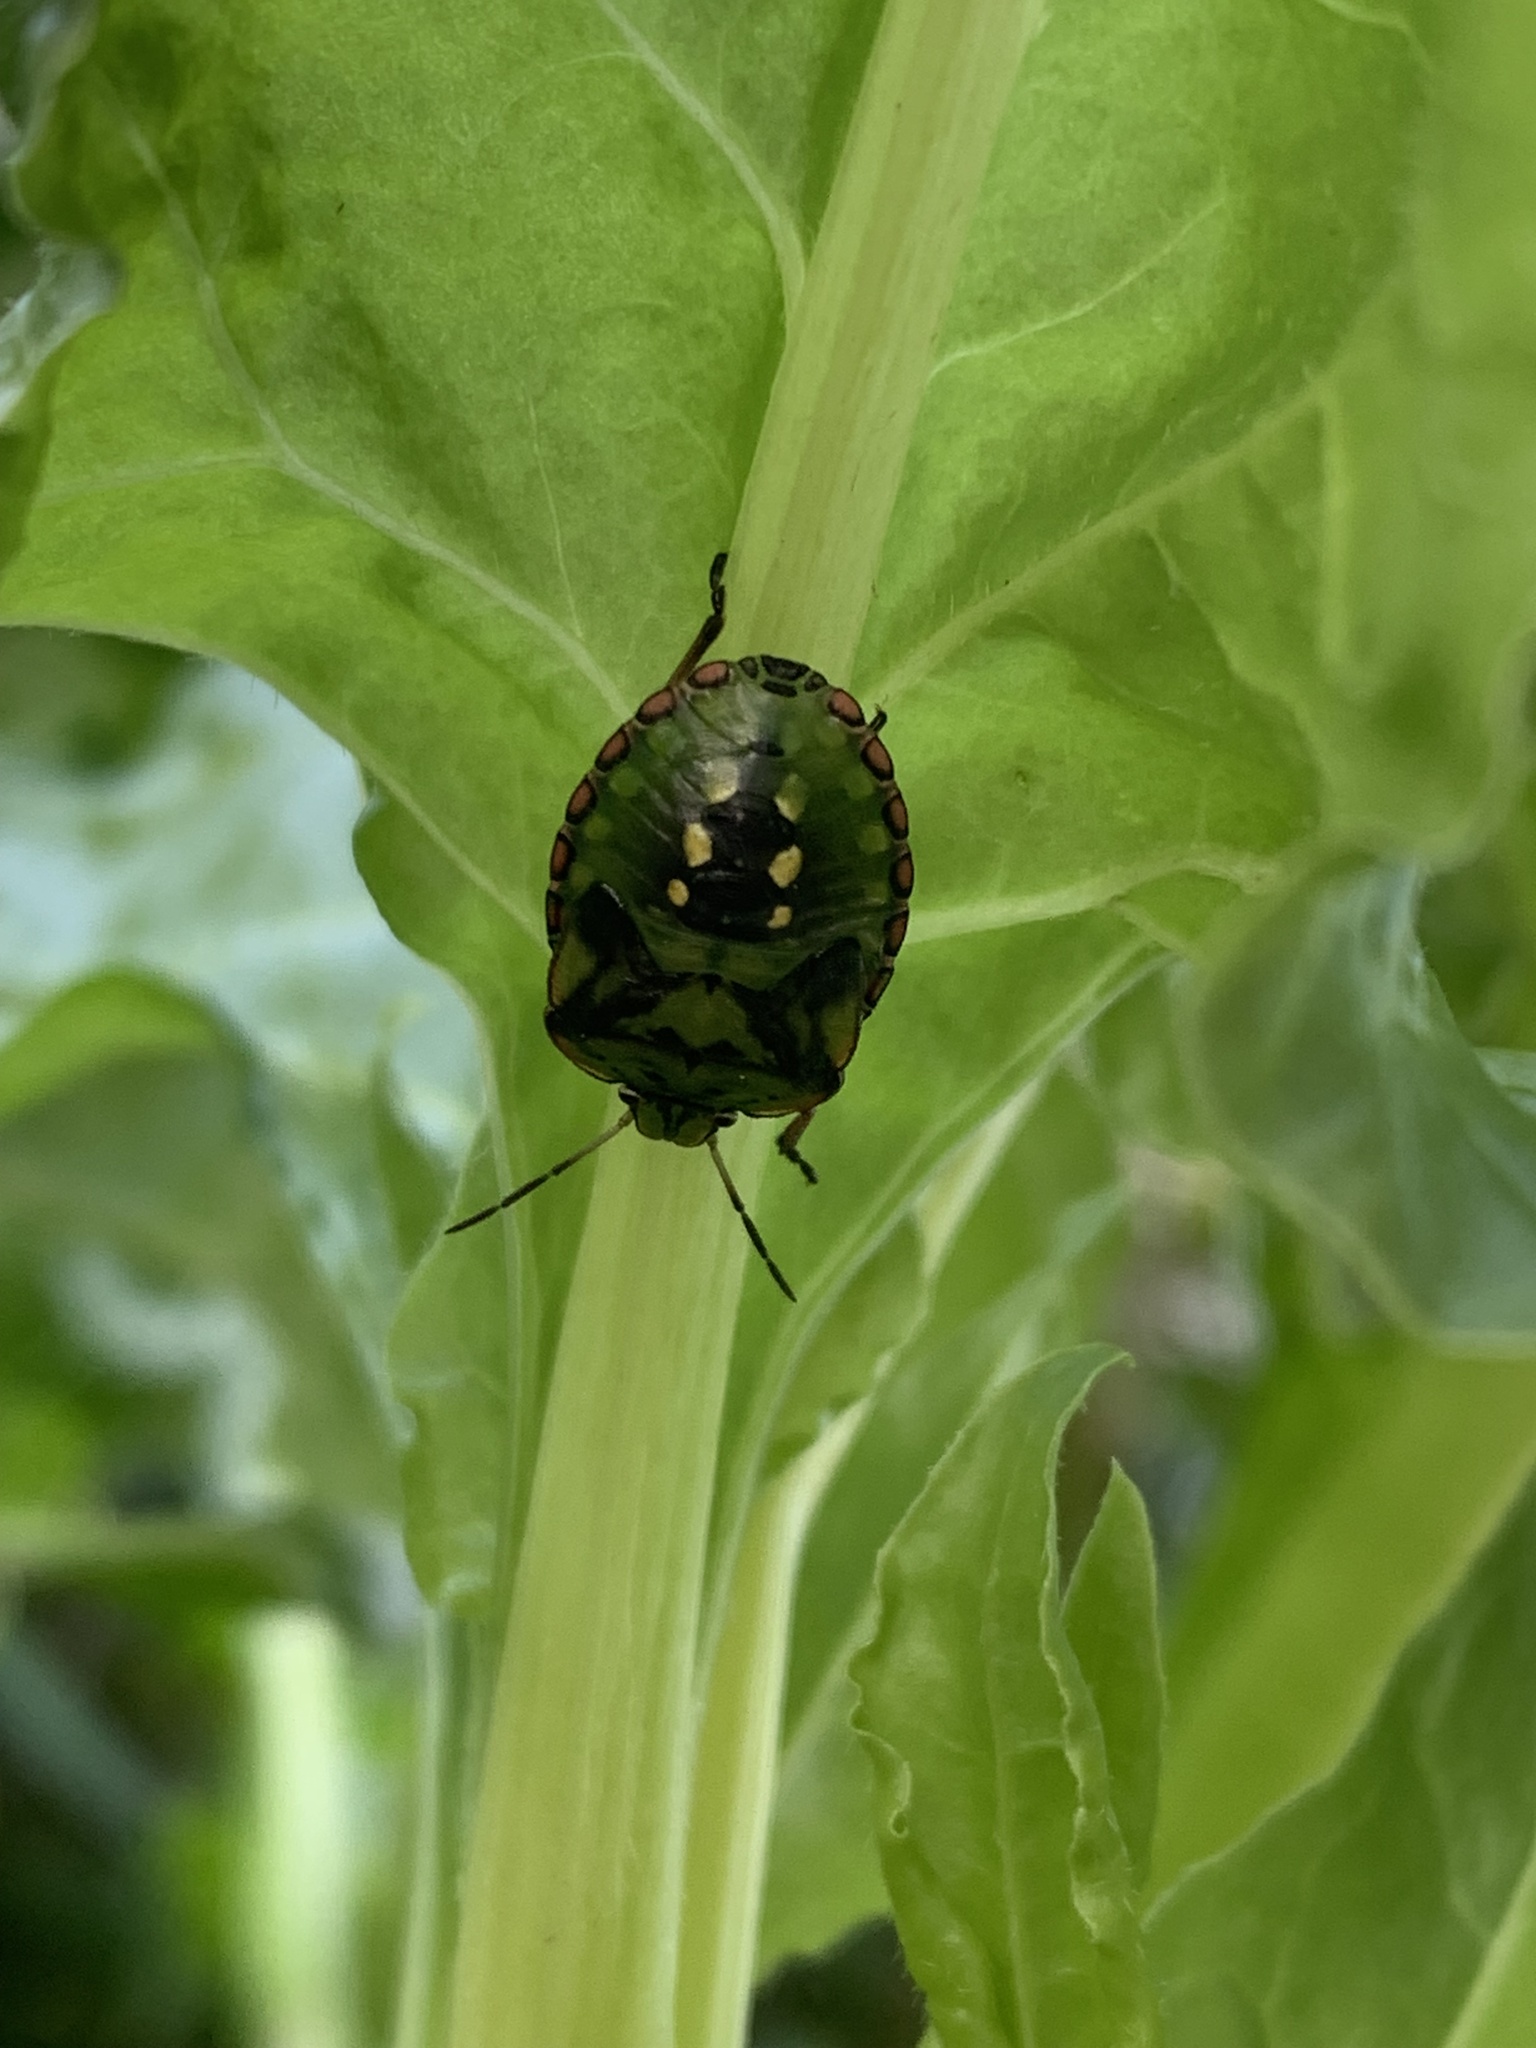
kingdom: Animalia
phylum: Arthropoda
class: Insecta
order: Hemiptera
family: Pentatomidae
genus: Nezara
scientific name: Nezara viridula
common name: Southern green stink bug
